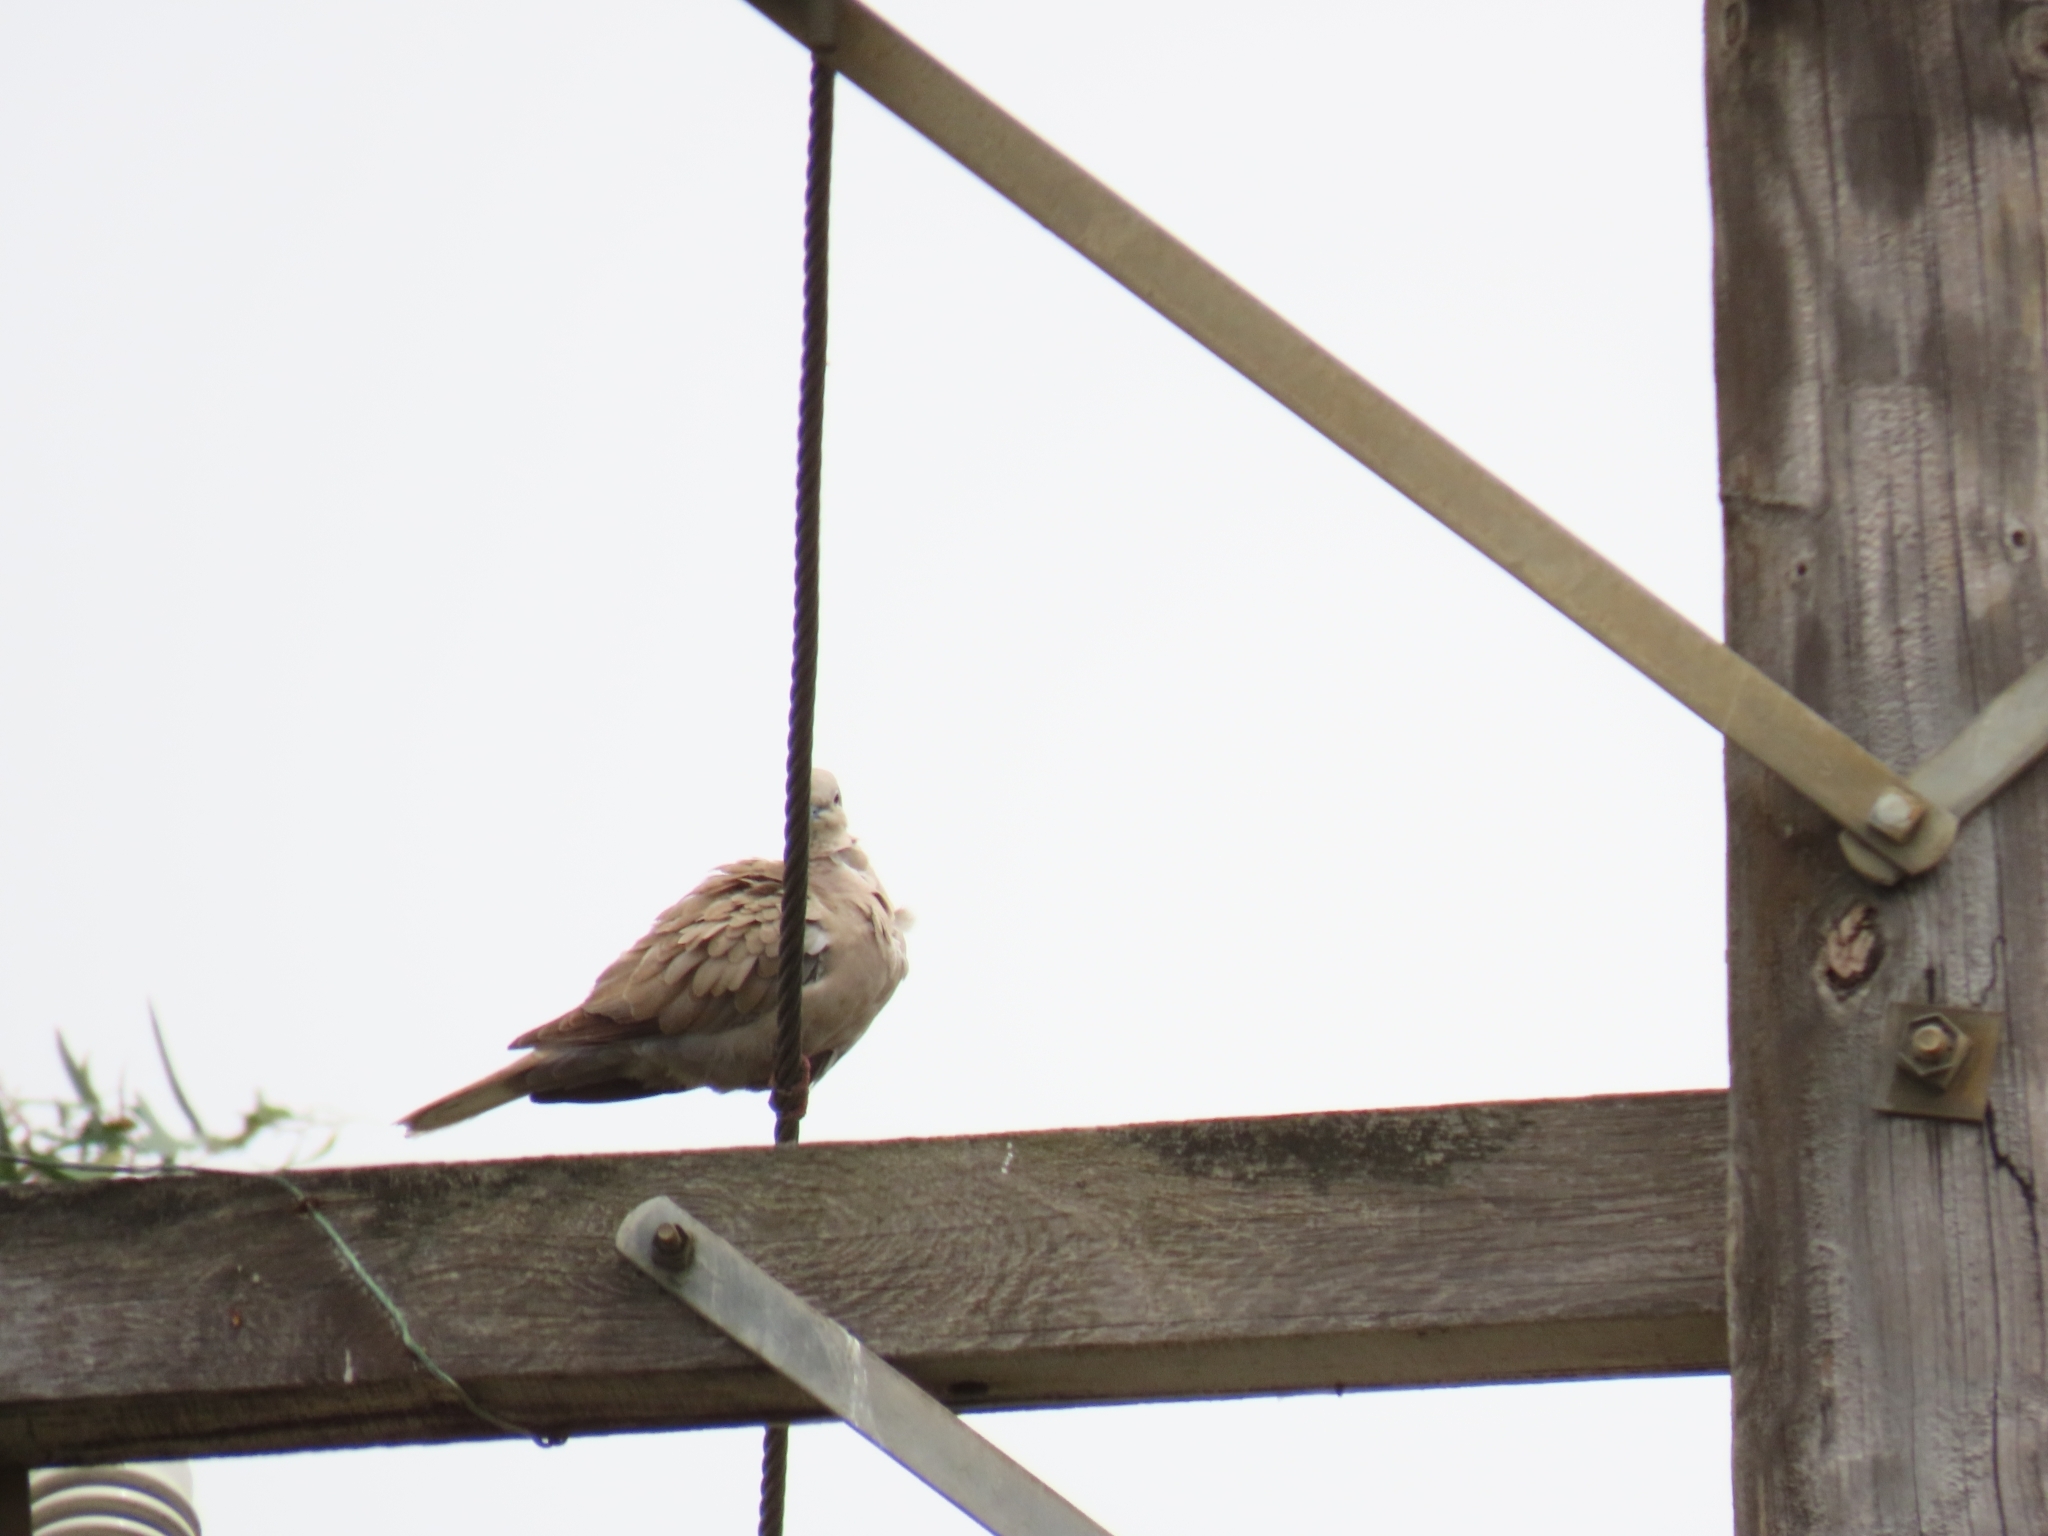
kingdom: Animalia
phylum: Chordata
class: Aves
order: Columbiformes
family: Columbidae
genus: Streptopelia
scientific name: Streptopelia decaocto
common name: Eurasian collared dove
